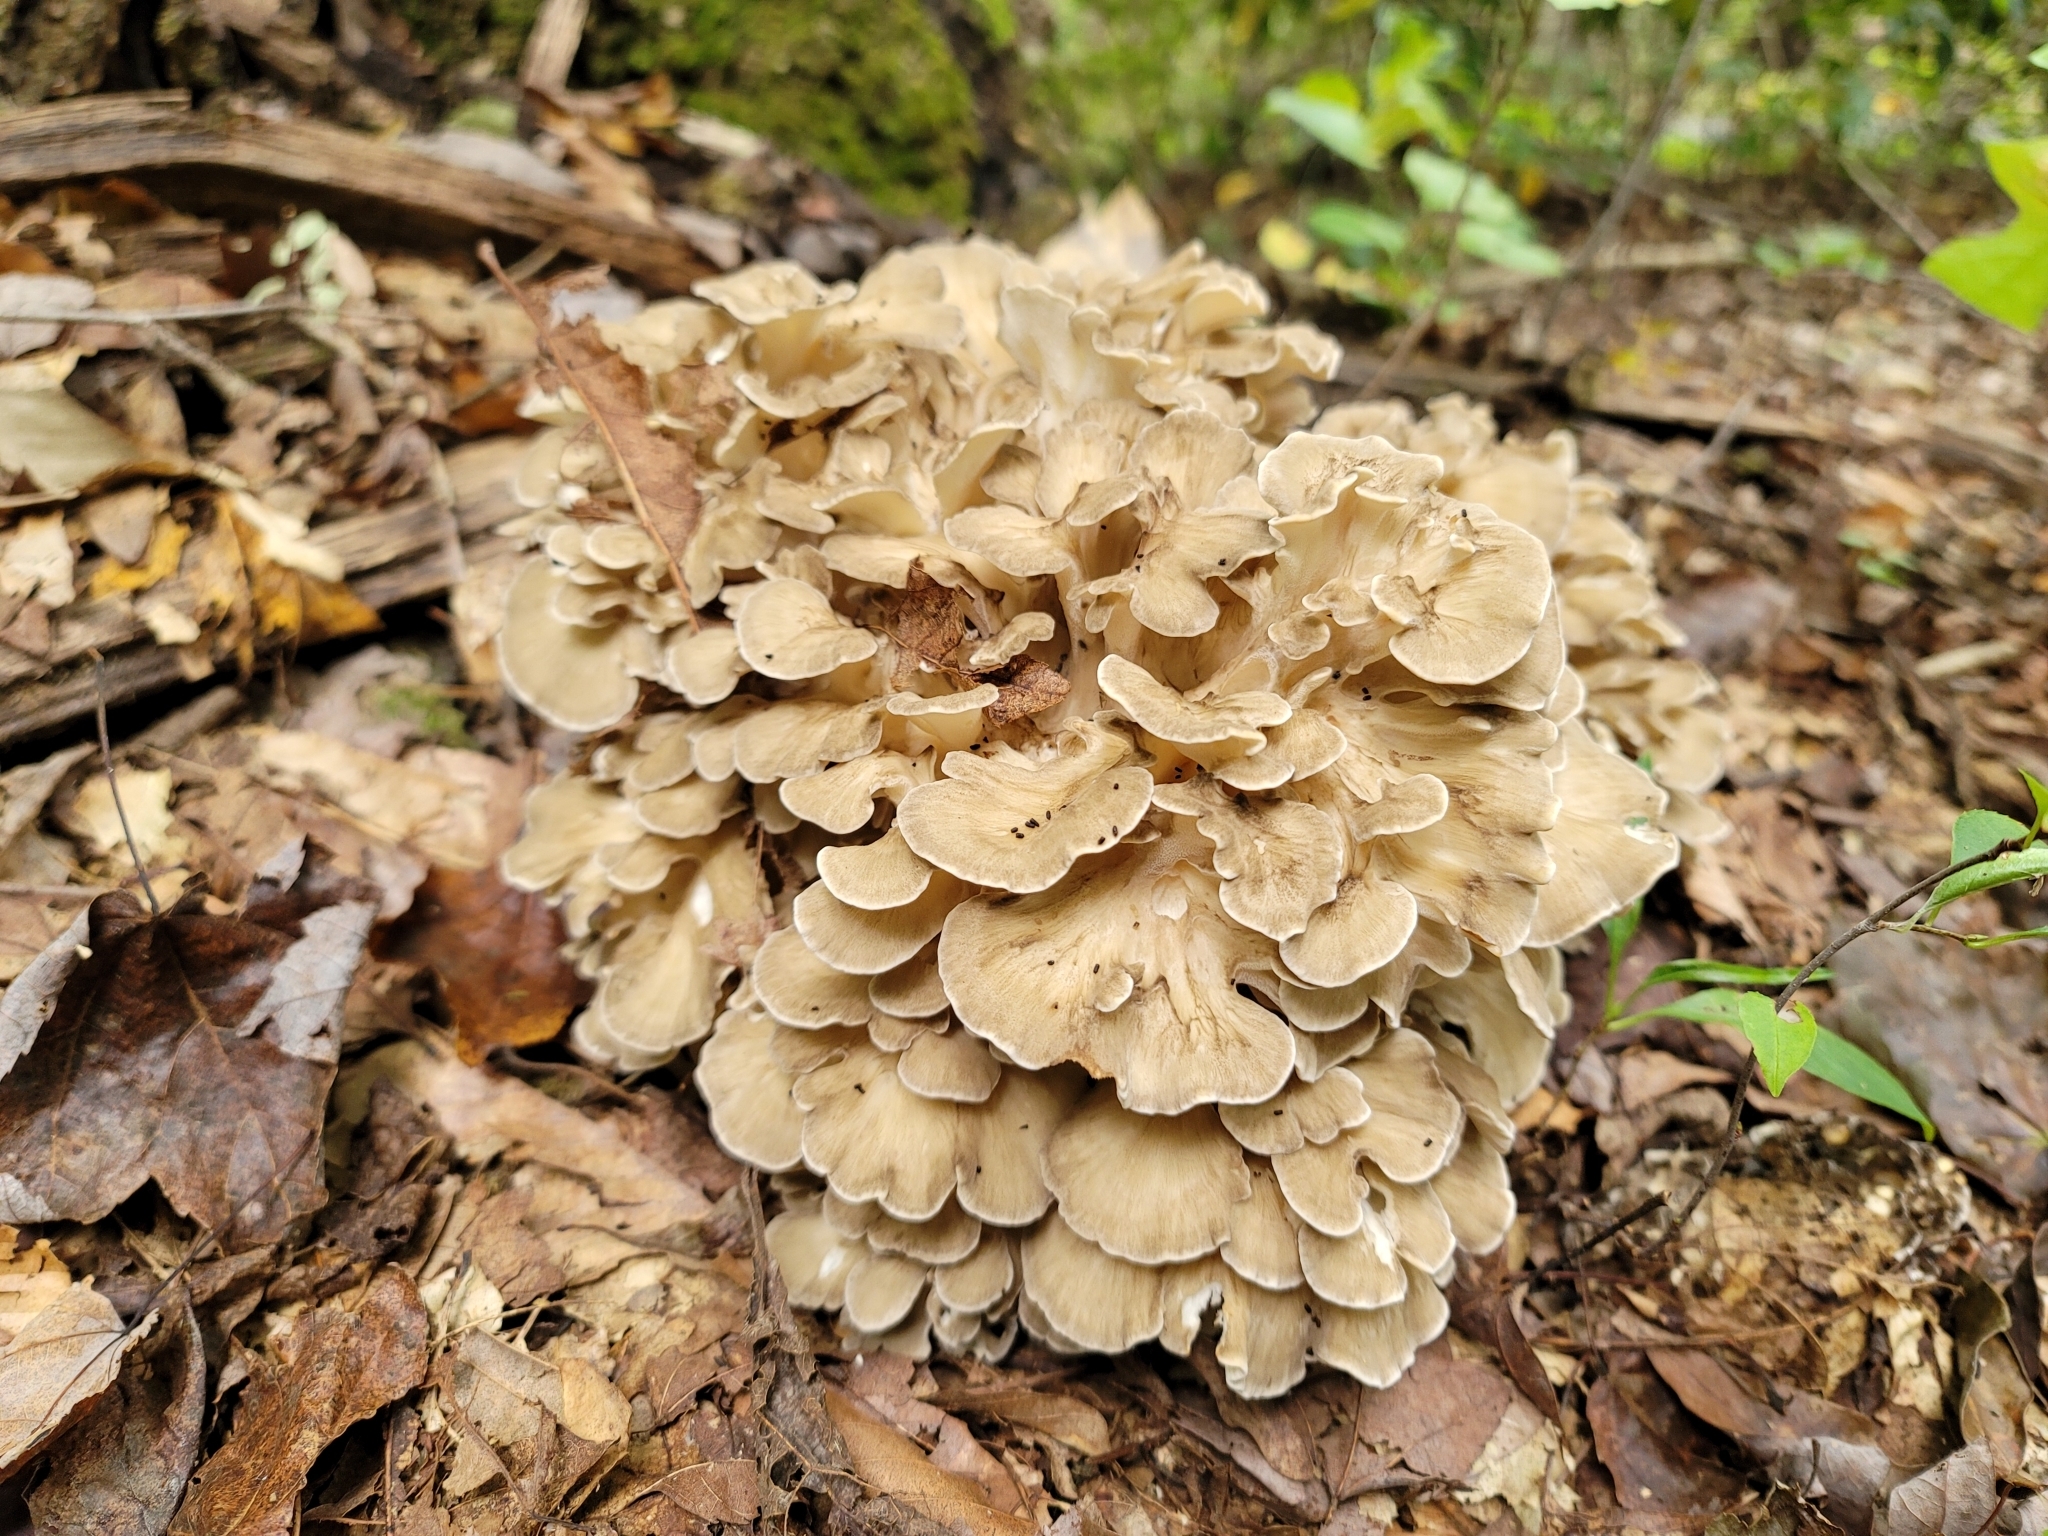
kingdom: Fungi
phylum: Basidiomycota
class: Agaricomycetes
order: Polyporales
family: Grifolaceae
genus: Grifola
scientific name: Grifola frondosa
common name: Hen of the woods
